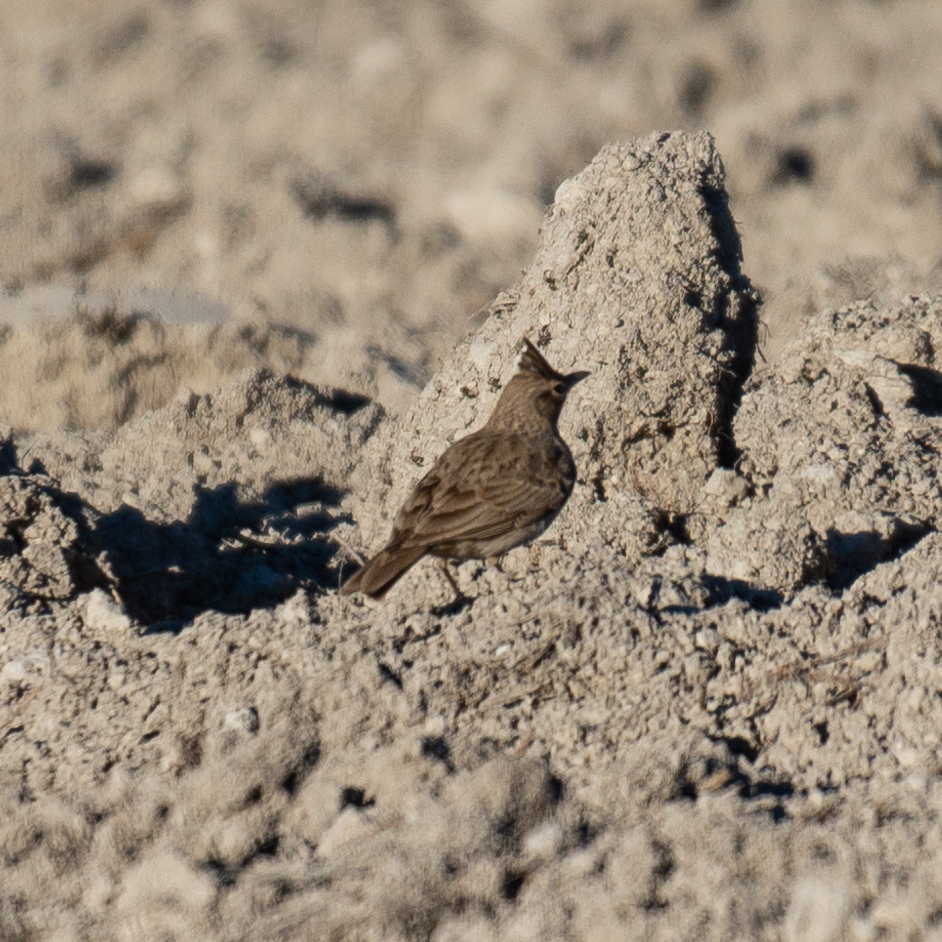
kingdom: Animalia
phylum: Chordata
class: Aves
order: Passeriformes
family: Alaudidae
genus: Galerida
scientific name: Galerida cristata
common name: Crested lark
